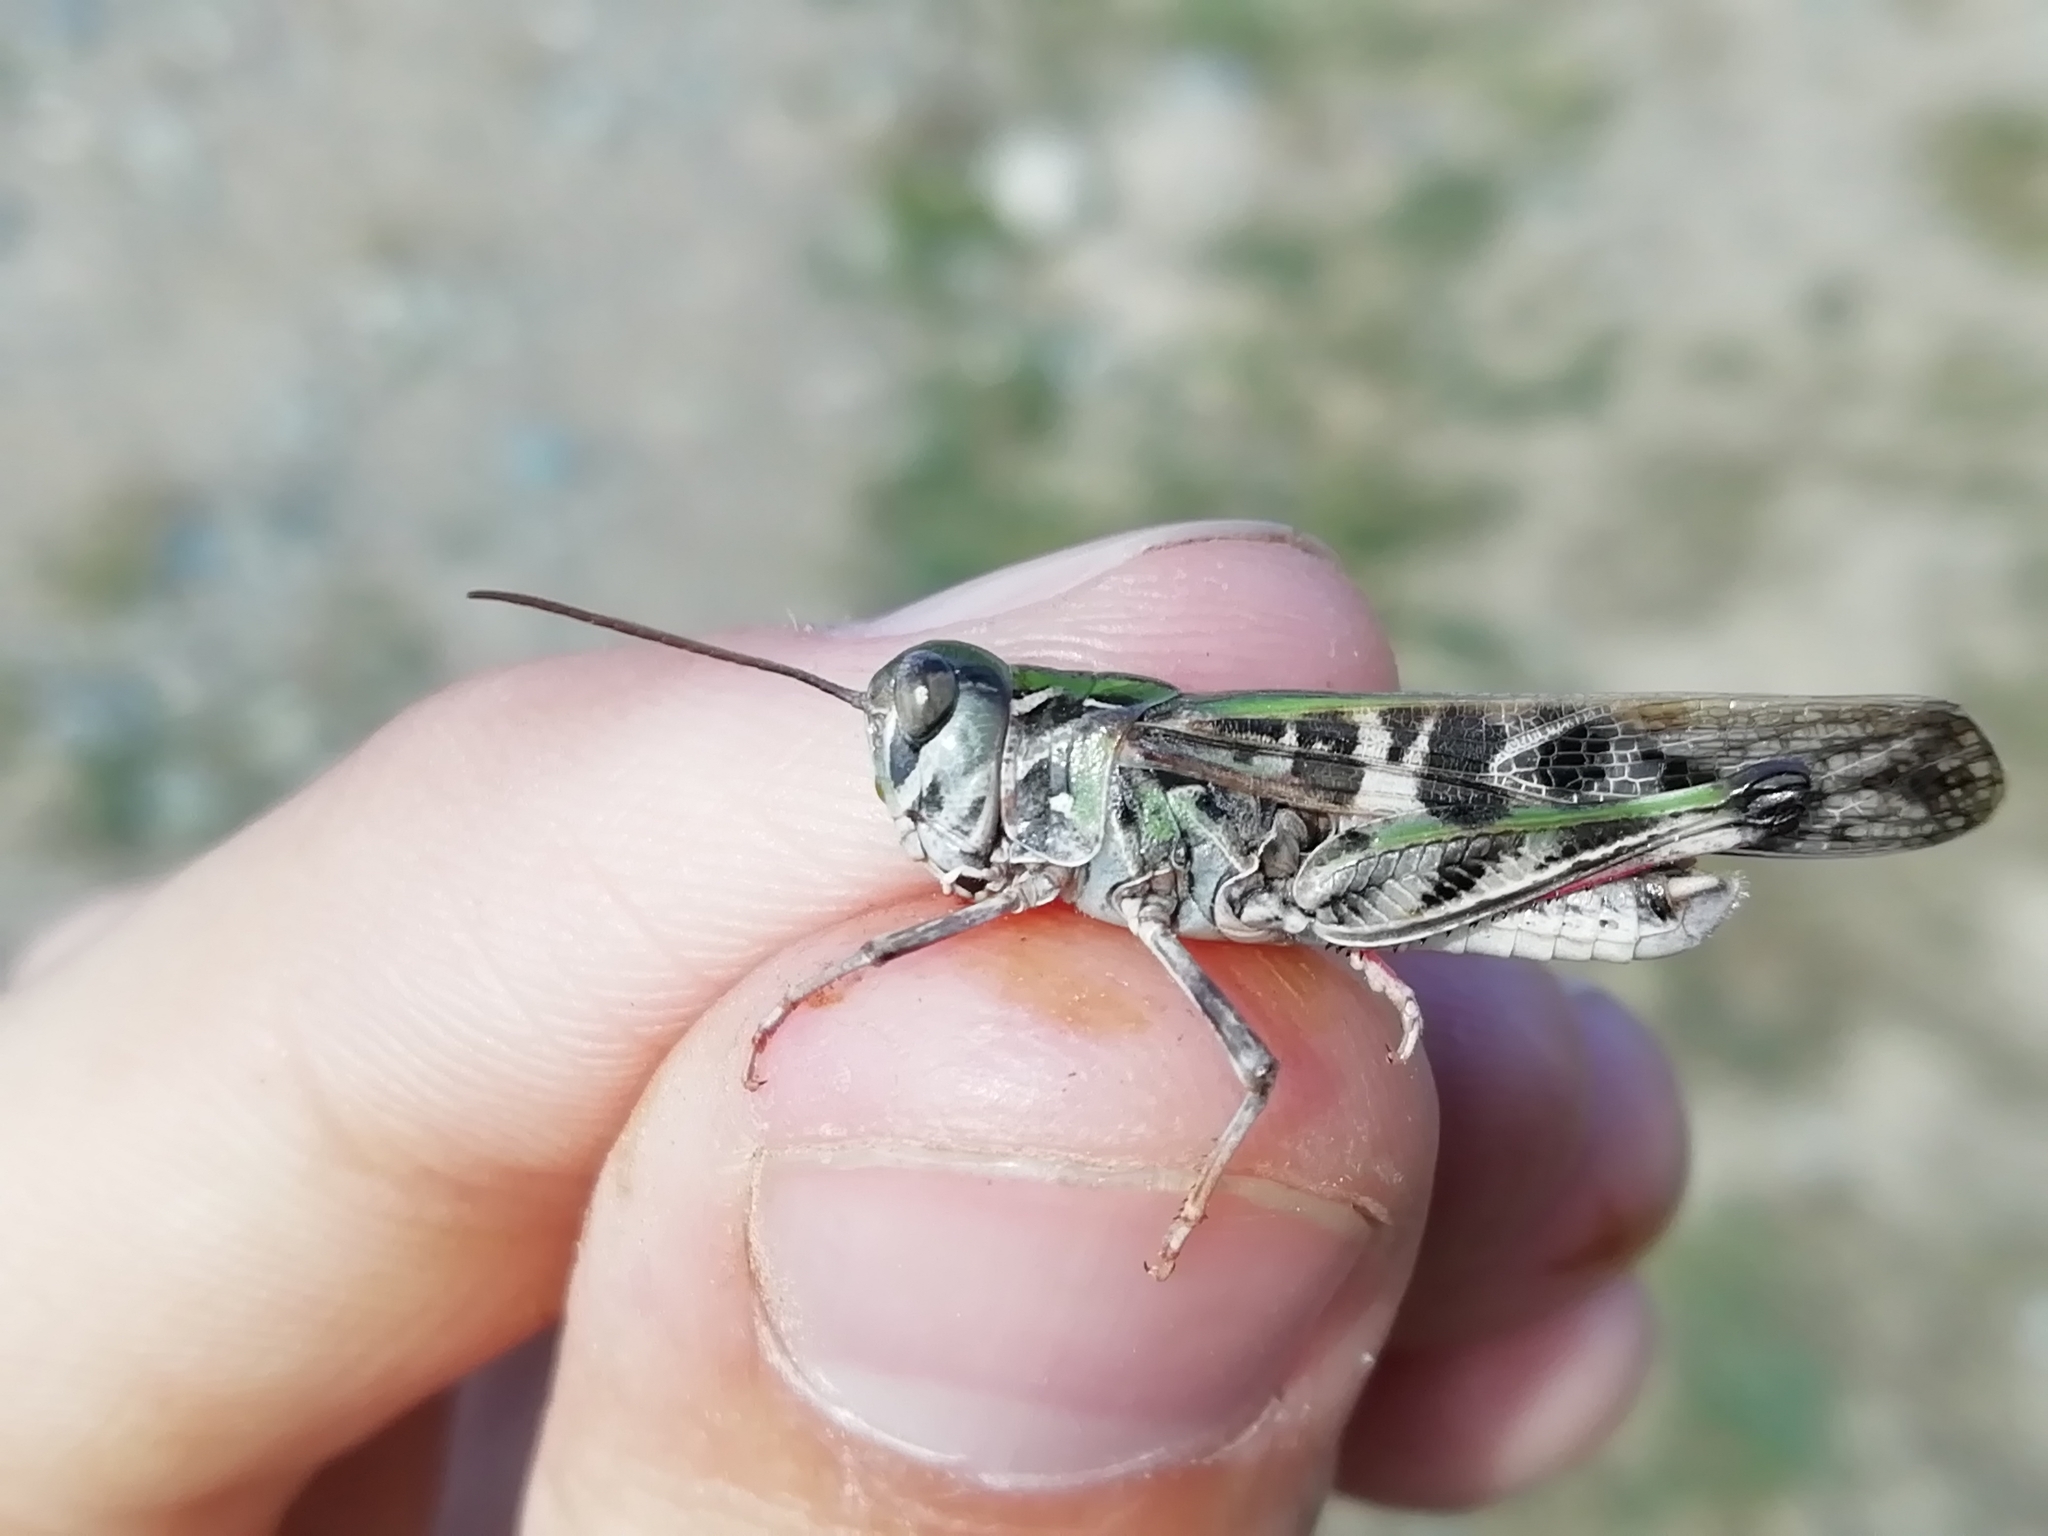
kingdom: Animalia
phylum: Arthropoda
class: Insecta
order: Orthoptera
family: Acrididae
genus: Oedaleus
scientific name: Oedaleus decorus
